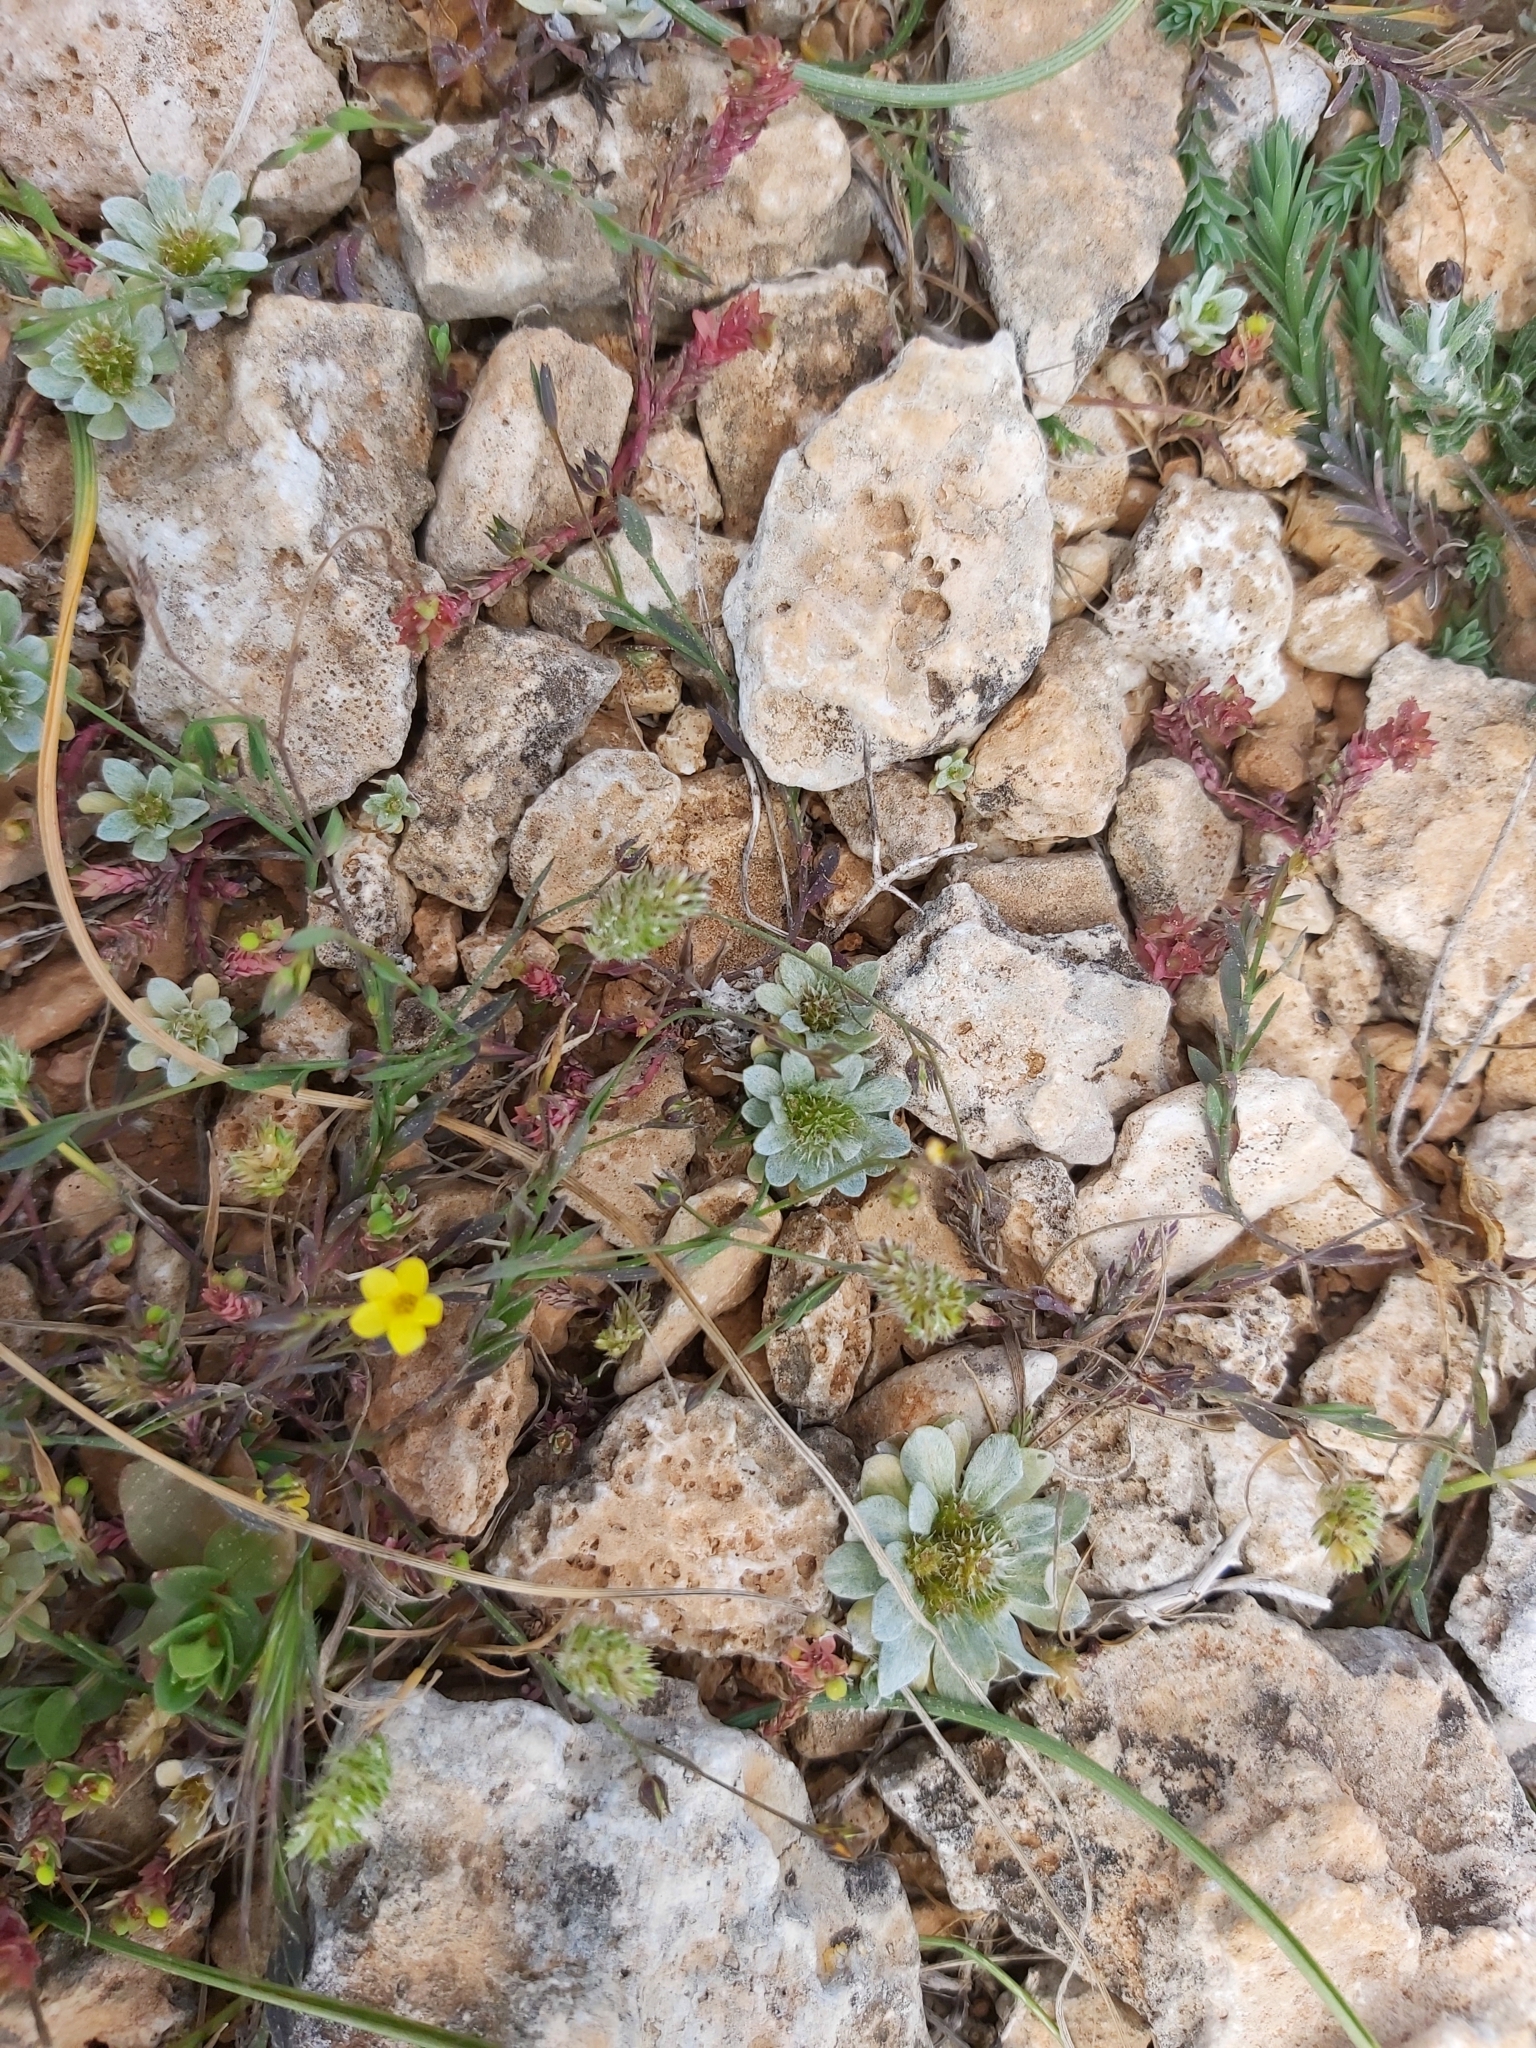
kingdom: Plantae
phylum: Tracheophyta
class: Magnoliopsida
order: Malpighiales
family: Linaceae
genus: Linum
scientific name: Linum trigynum
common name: French flax
